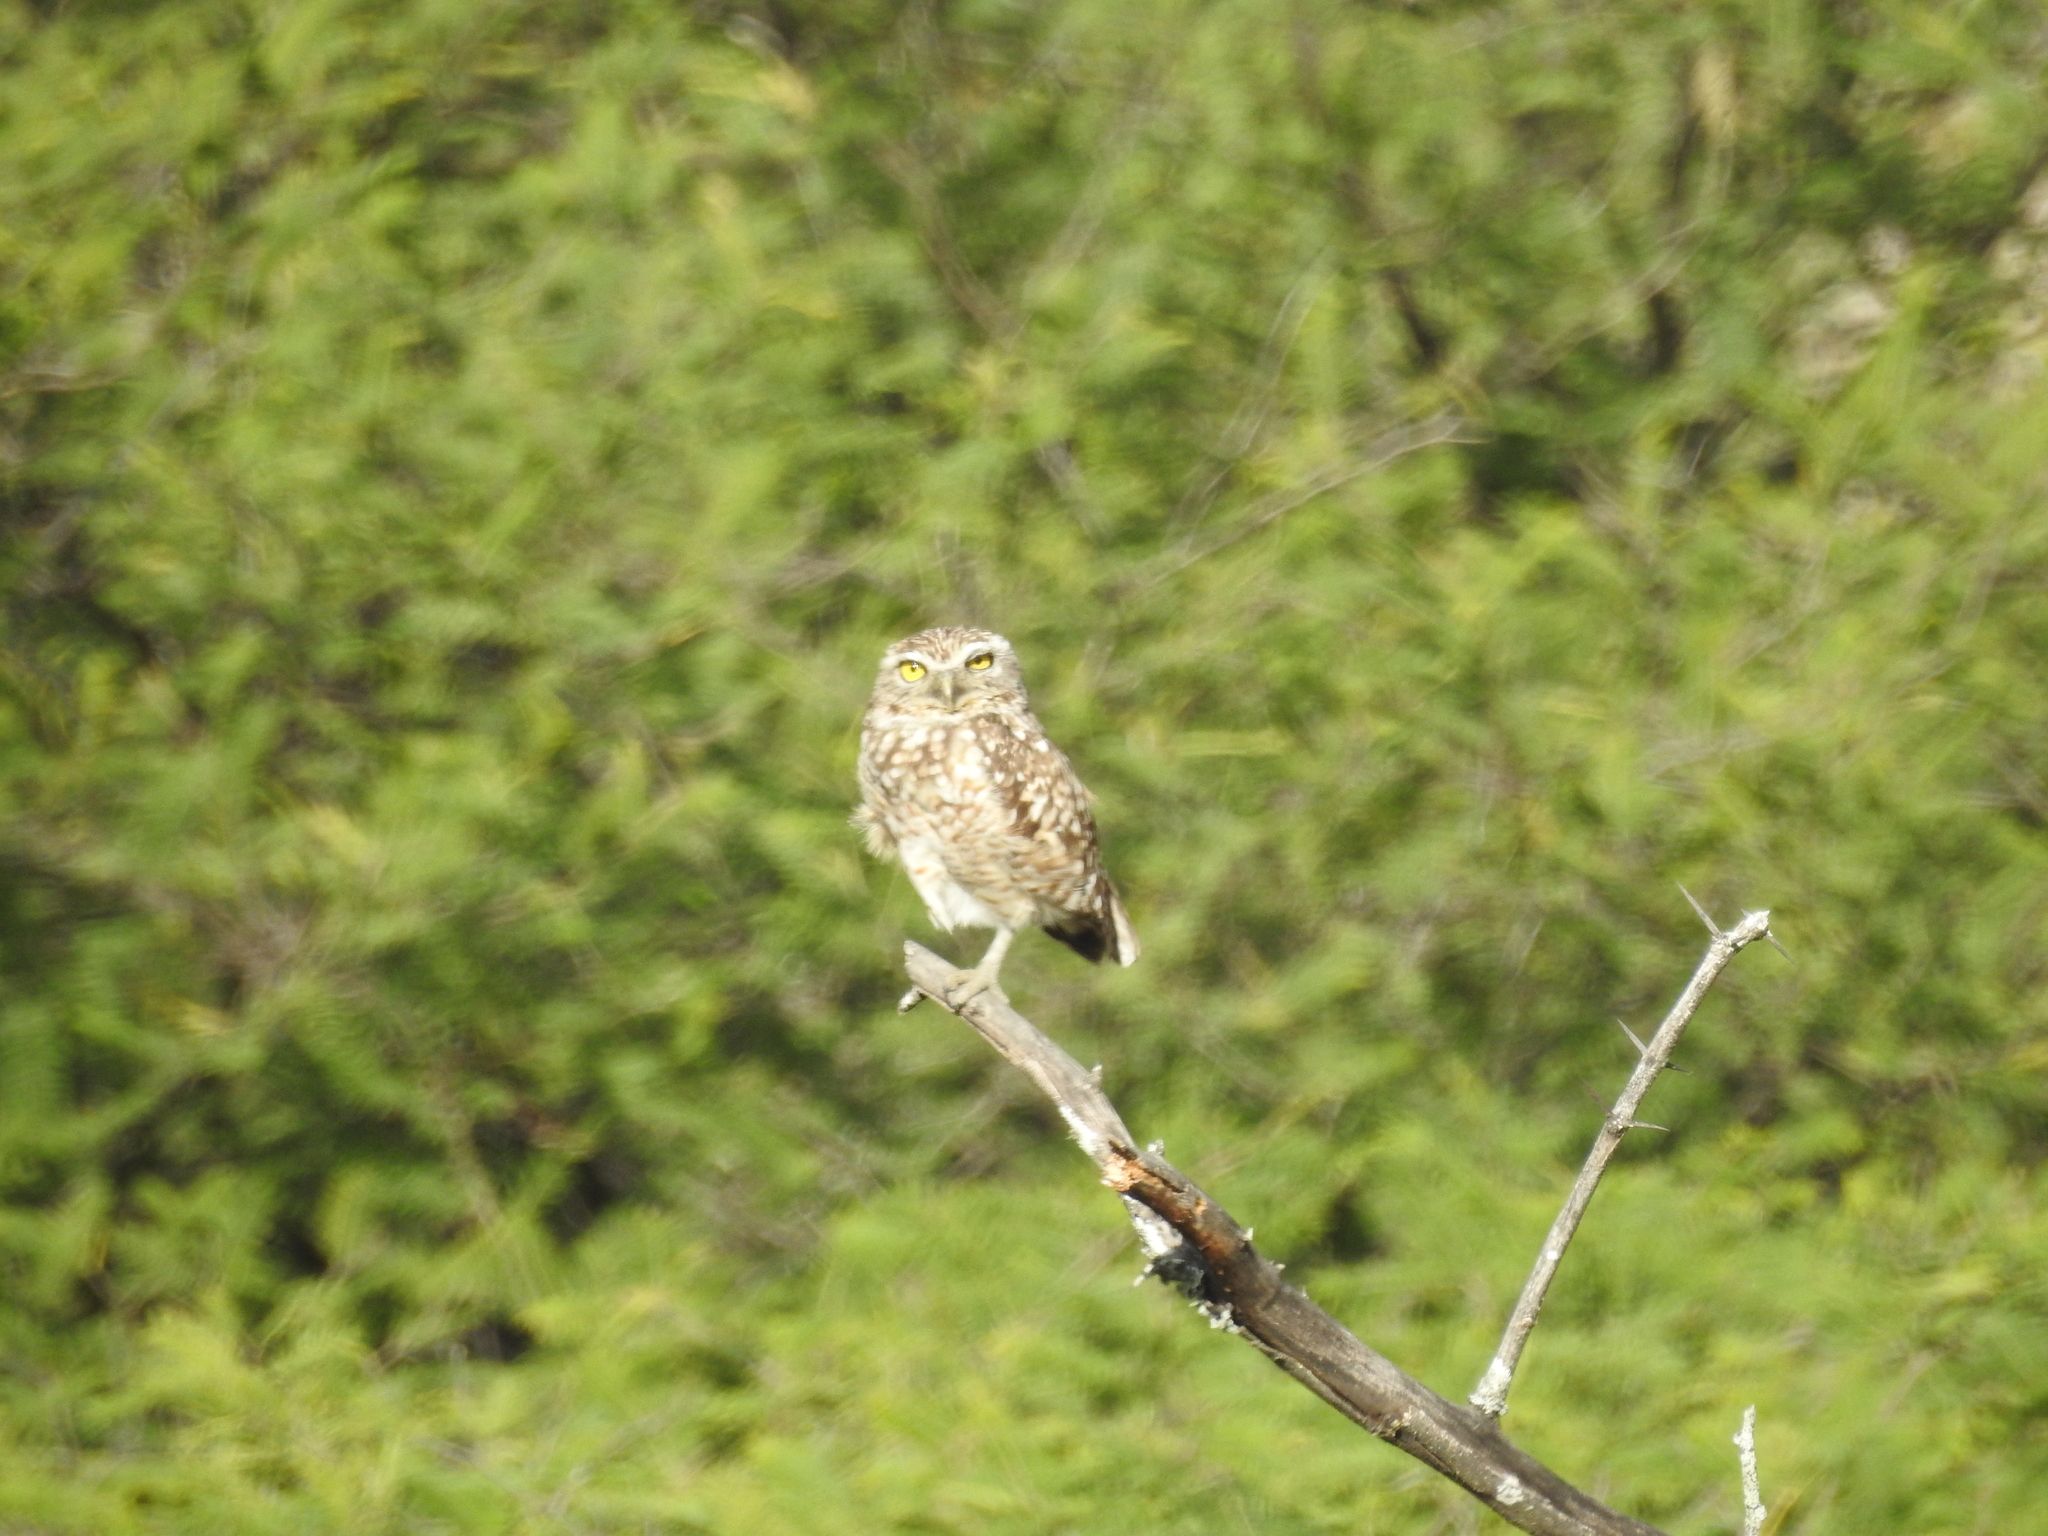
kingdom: Animalia
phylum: Chordata
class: Aves
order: Strigiformes
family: Strigidae
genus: Athene
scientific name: Athene cunicularia
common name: Burrowing owl
